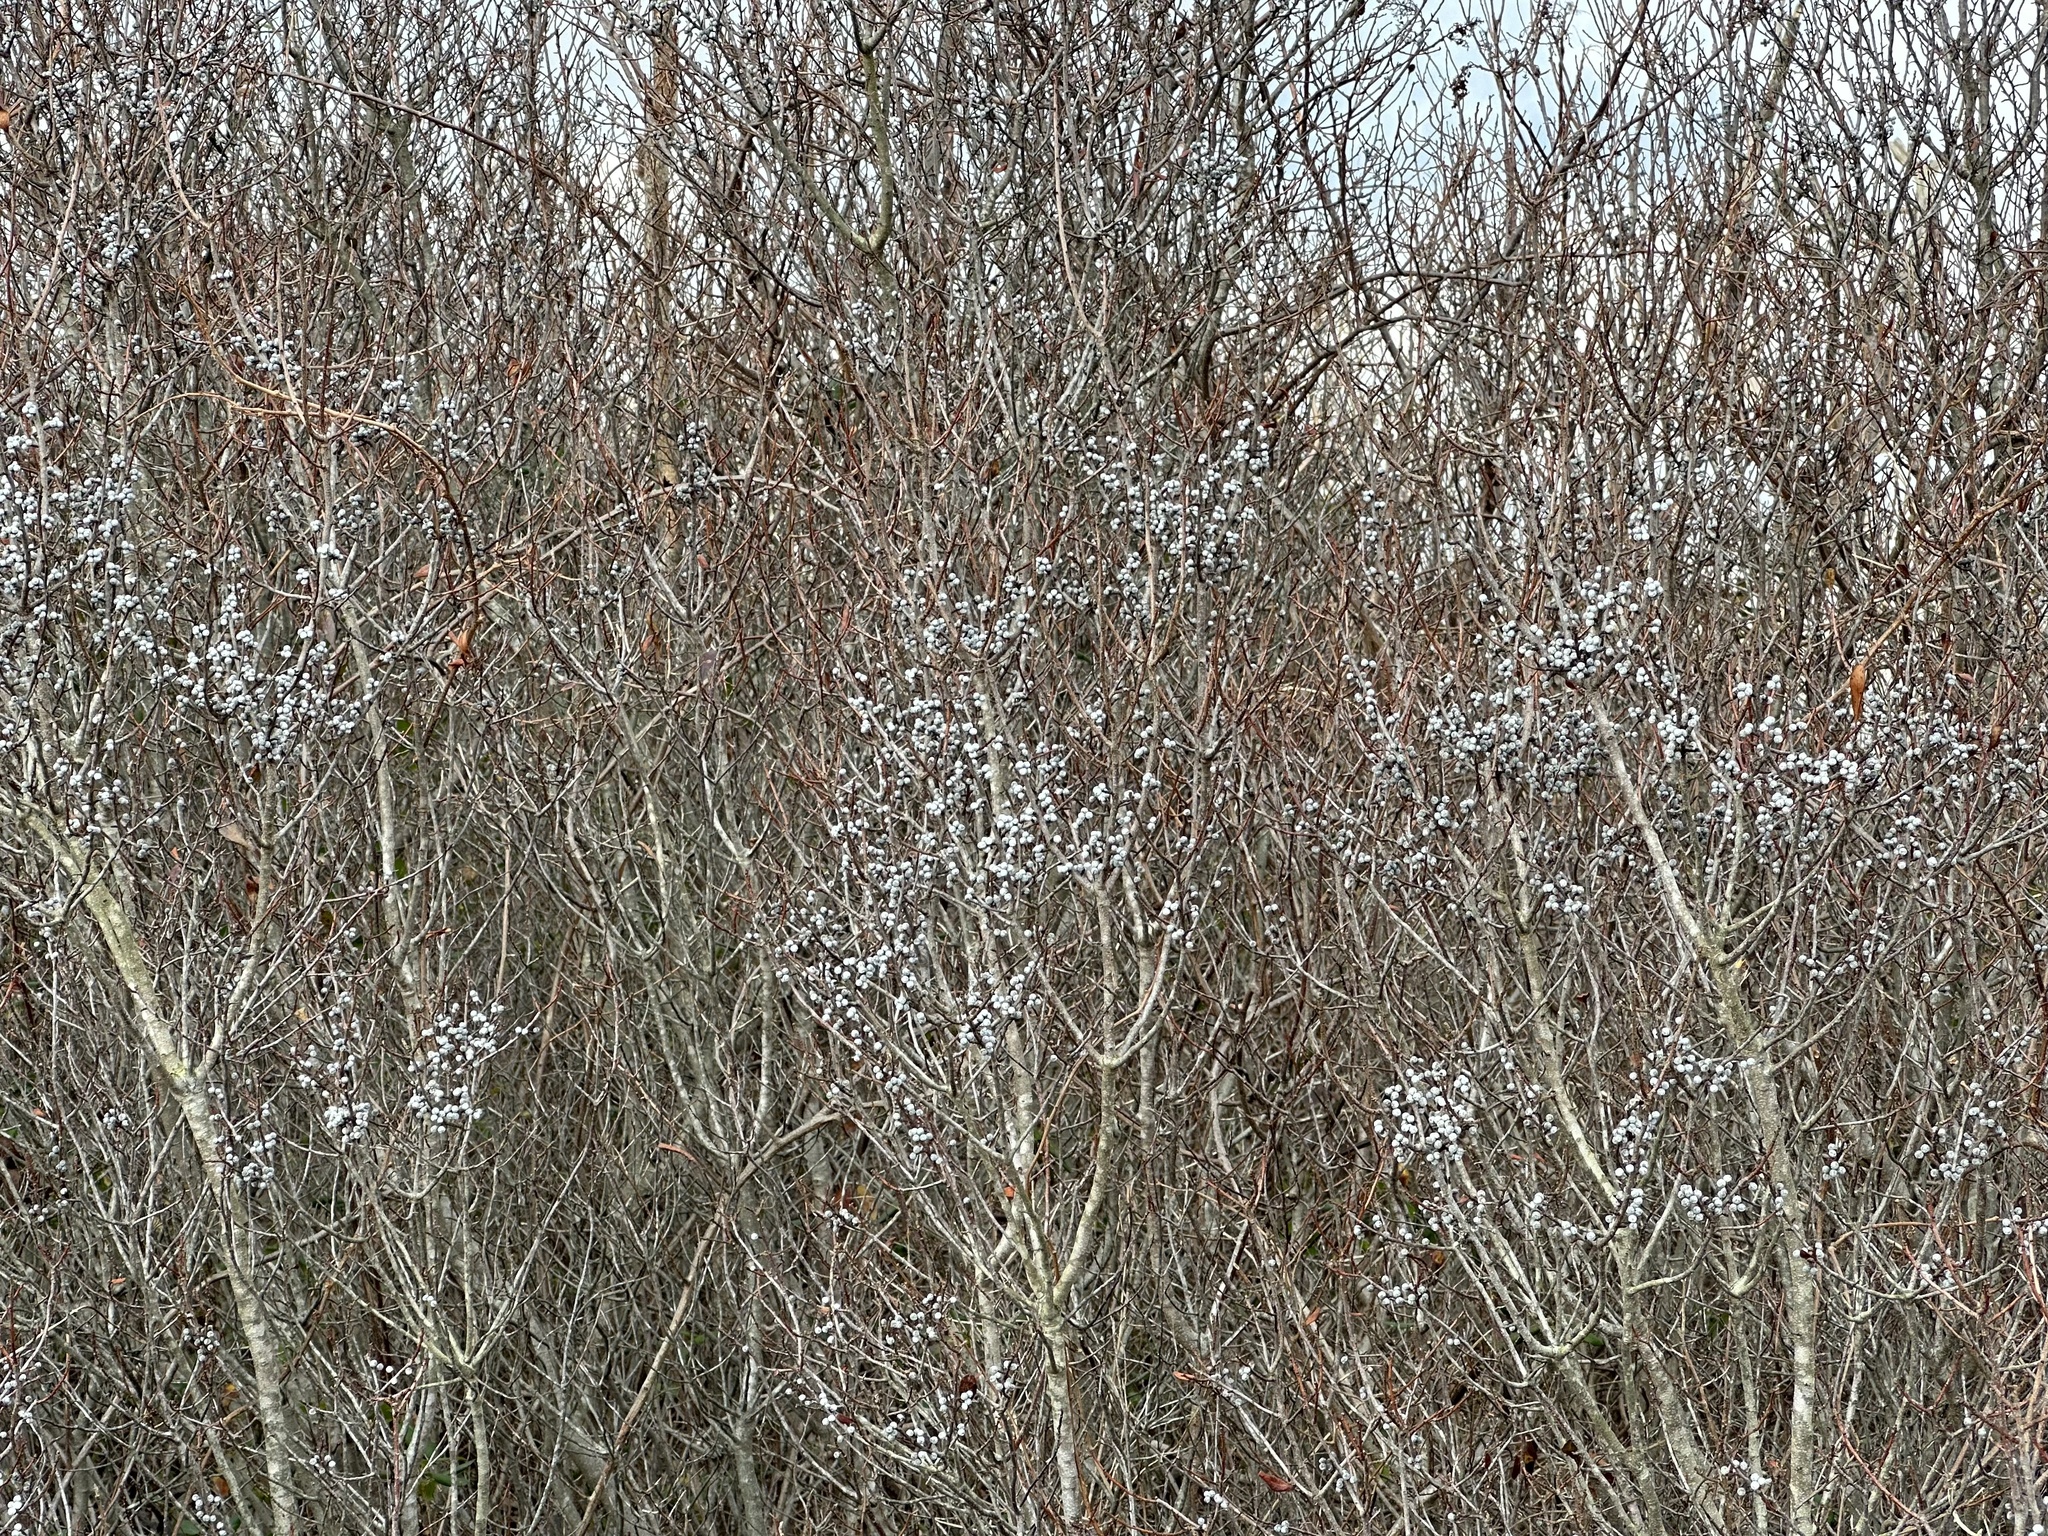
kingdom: Plantae
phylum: Tracheophyta
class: Magnoliopsida
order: Fagales
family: Myricaceae
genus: Morella
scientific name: Morella pensylvanica
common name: Northern bayberry
